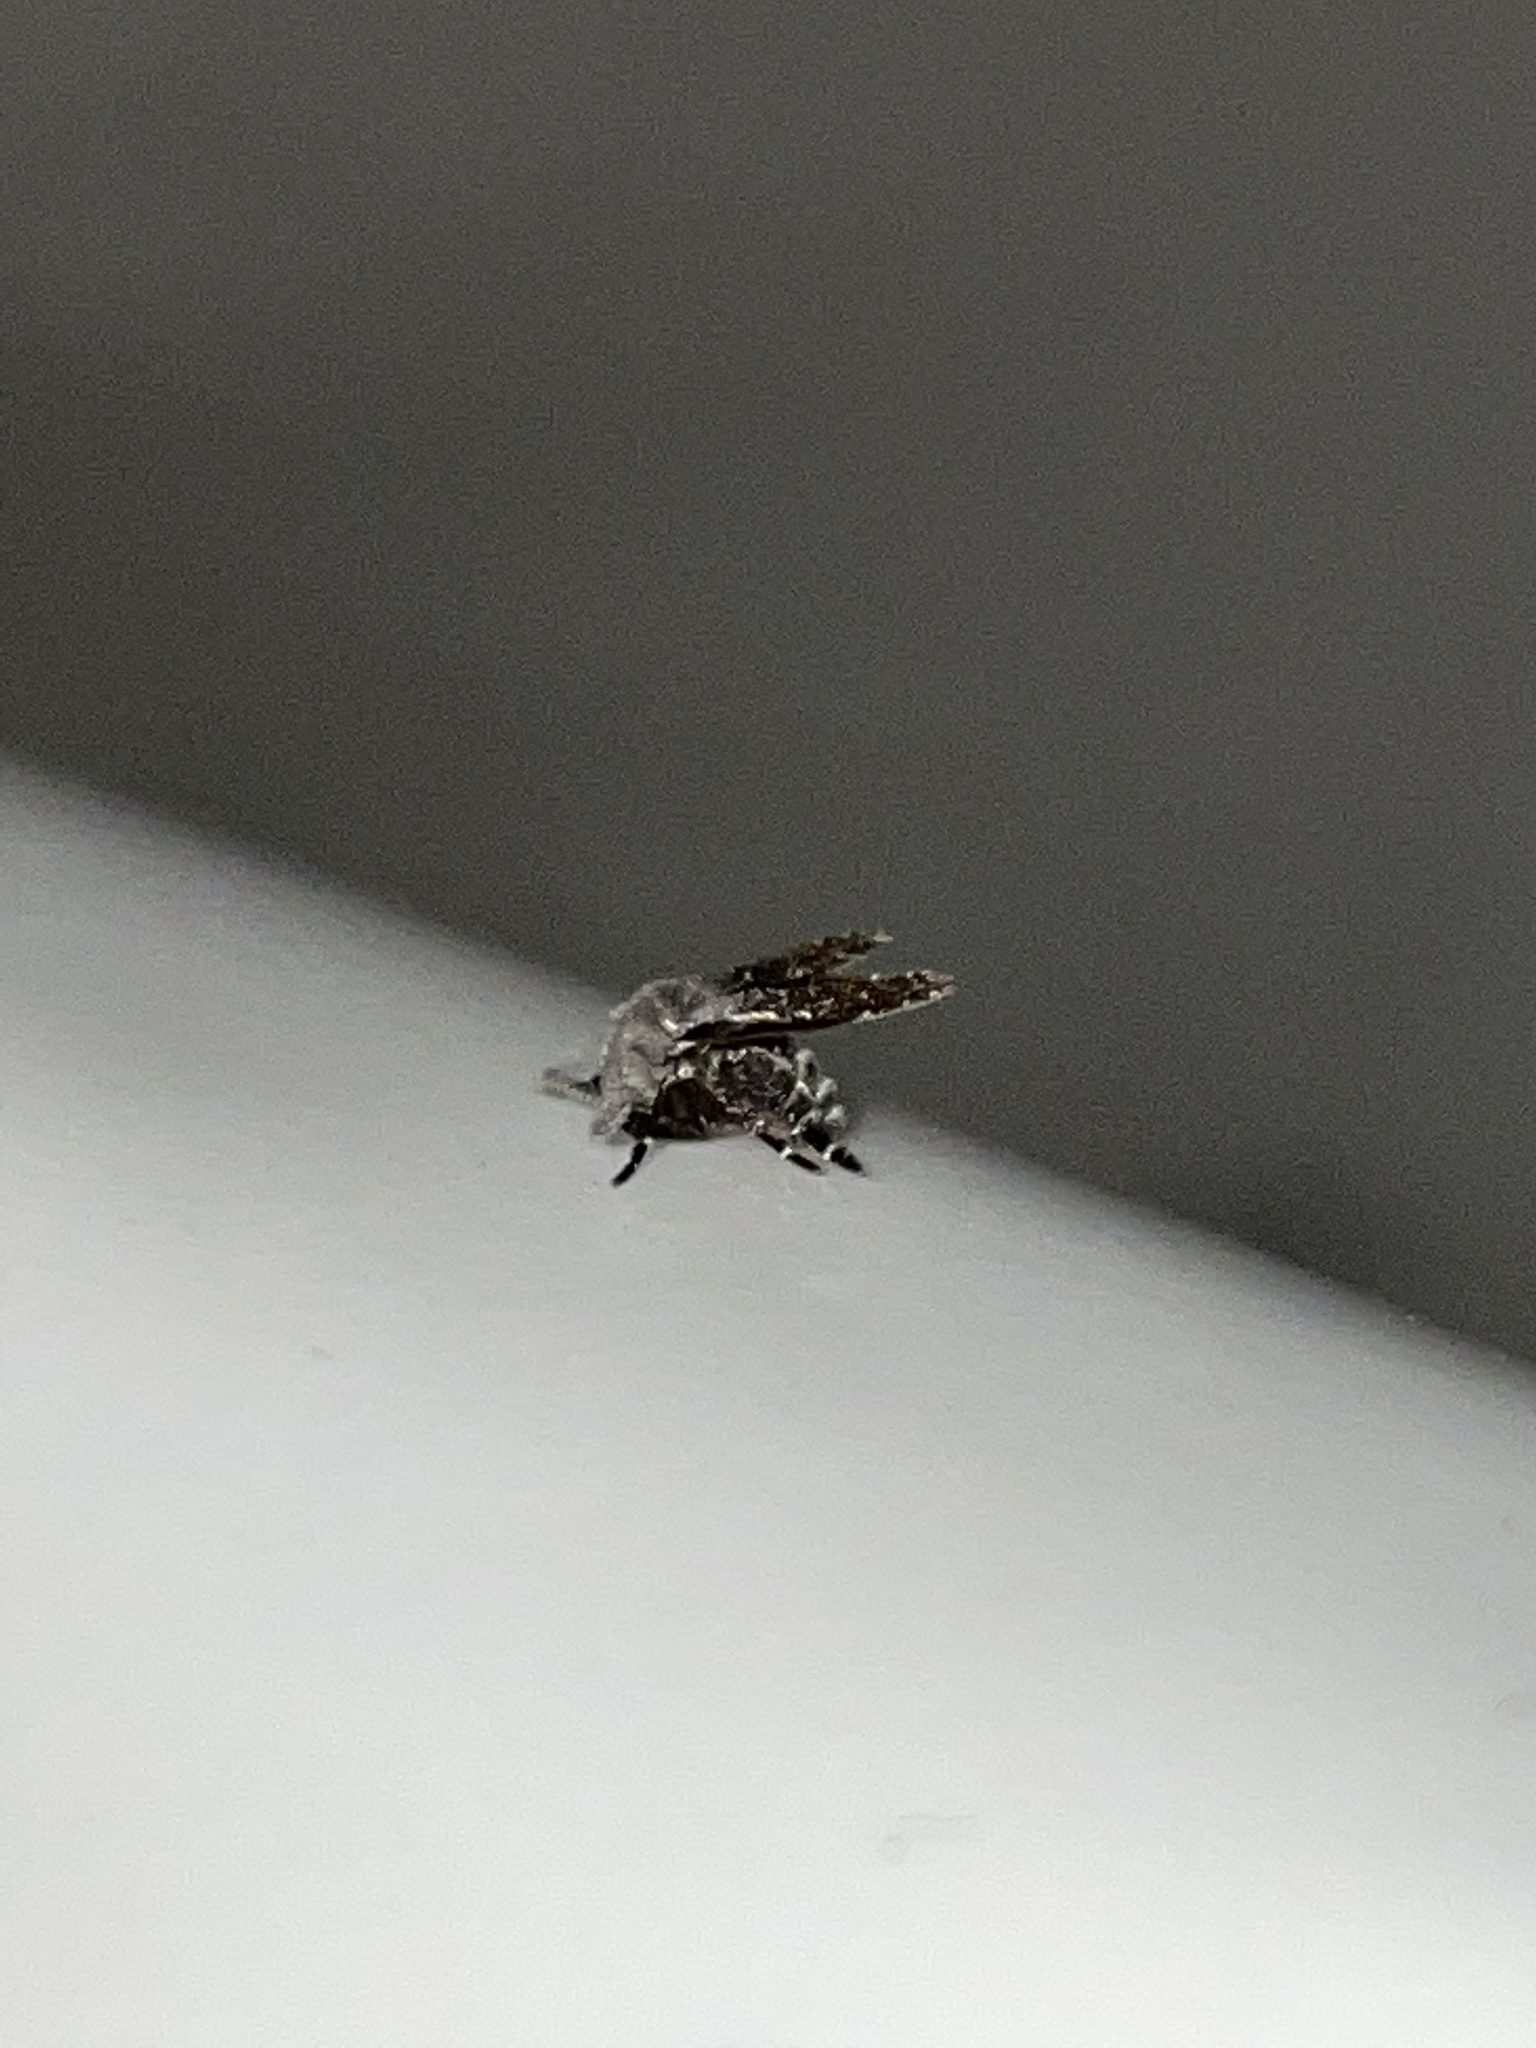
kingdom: Animalia
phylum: Arthropoda
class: Insecta
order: Diptera
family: Psychodidae
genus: Clogmia
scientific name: Clogmia albipunctatus
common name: White-spotted moth fly
